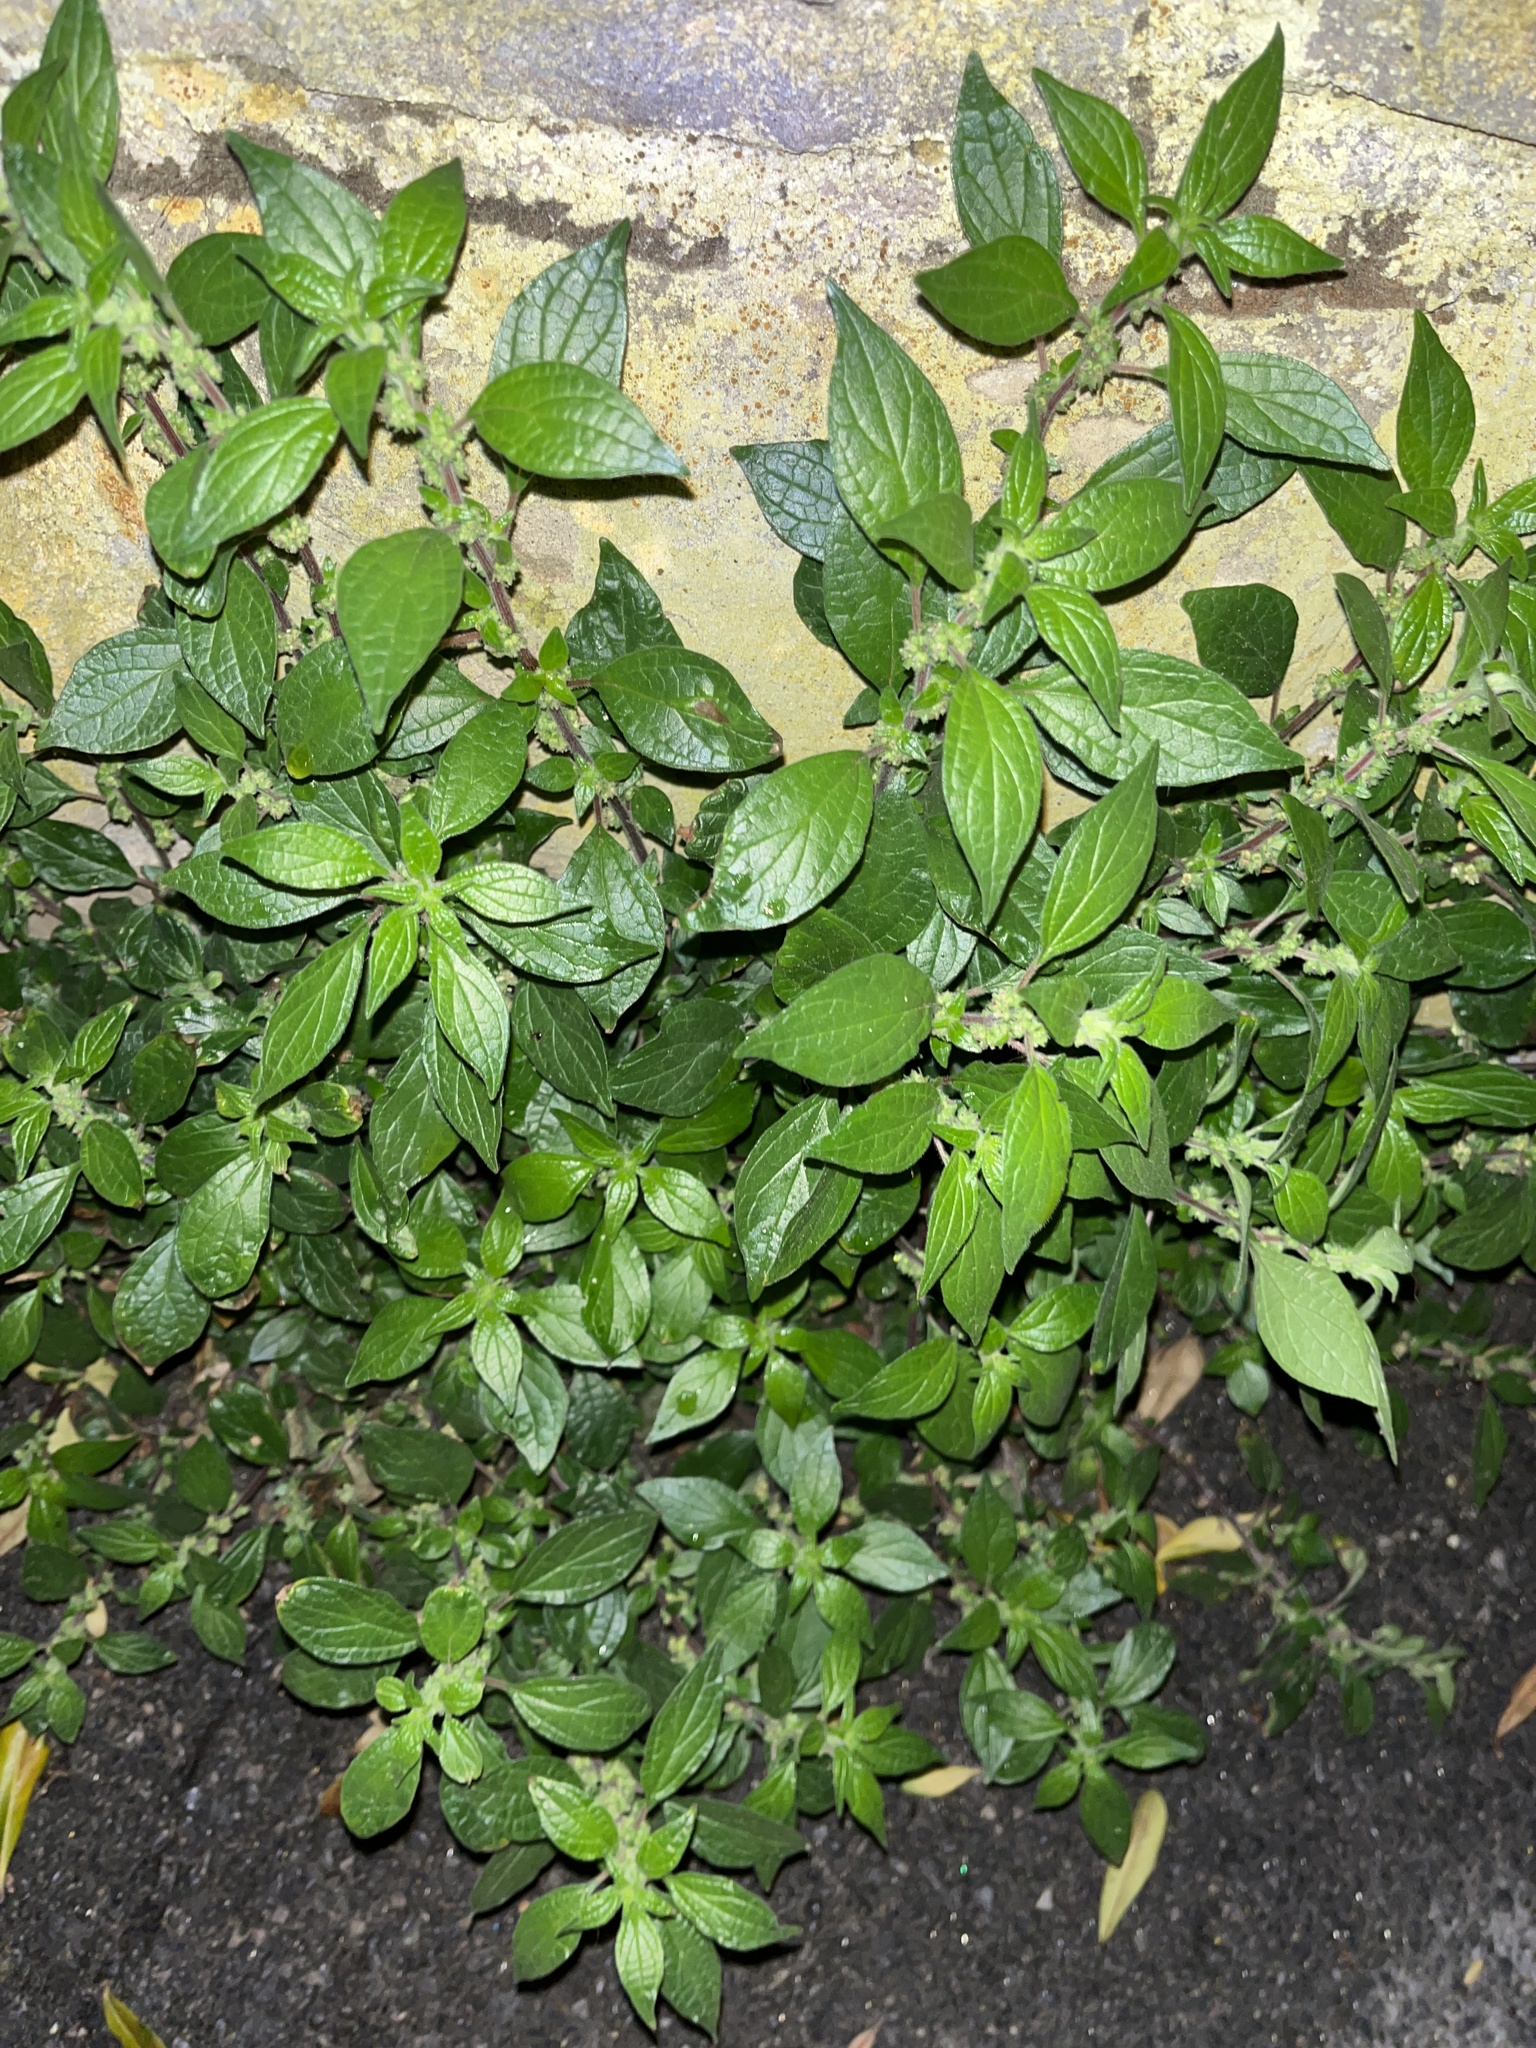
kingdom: Plantae
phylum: Tracheophyta
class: Magnoliopsida
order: Rosales
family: Urticaceae
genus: Parietaria
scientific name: Parietaria judaica
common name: Pellitory-of-the-wall
